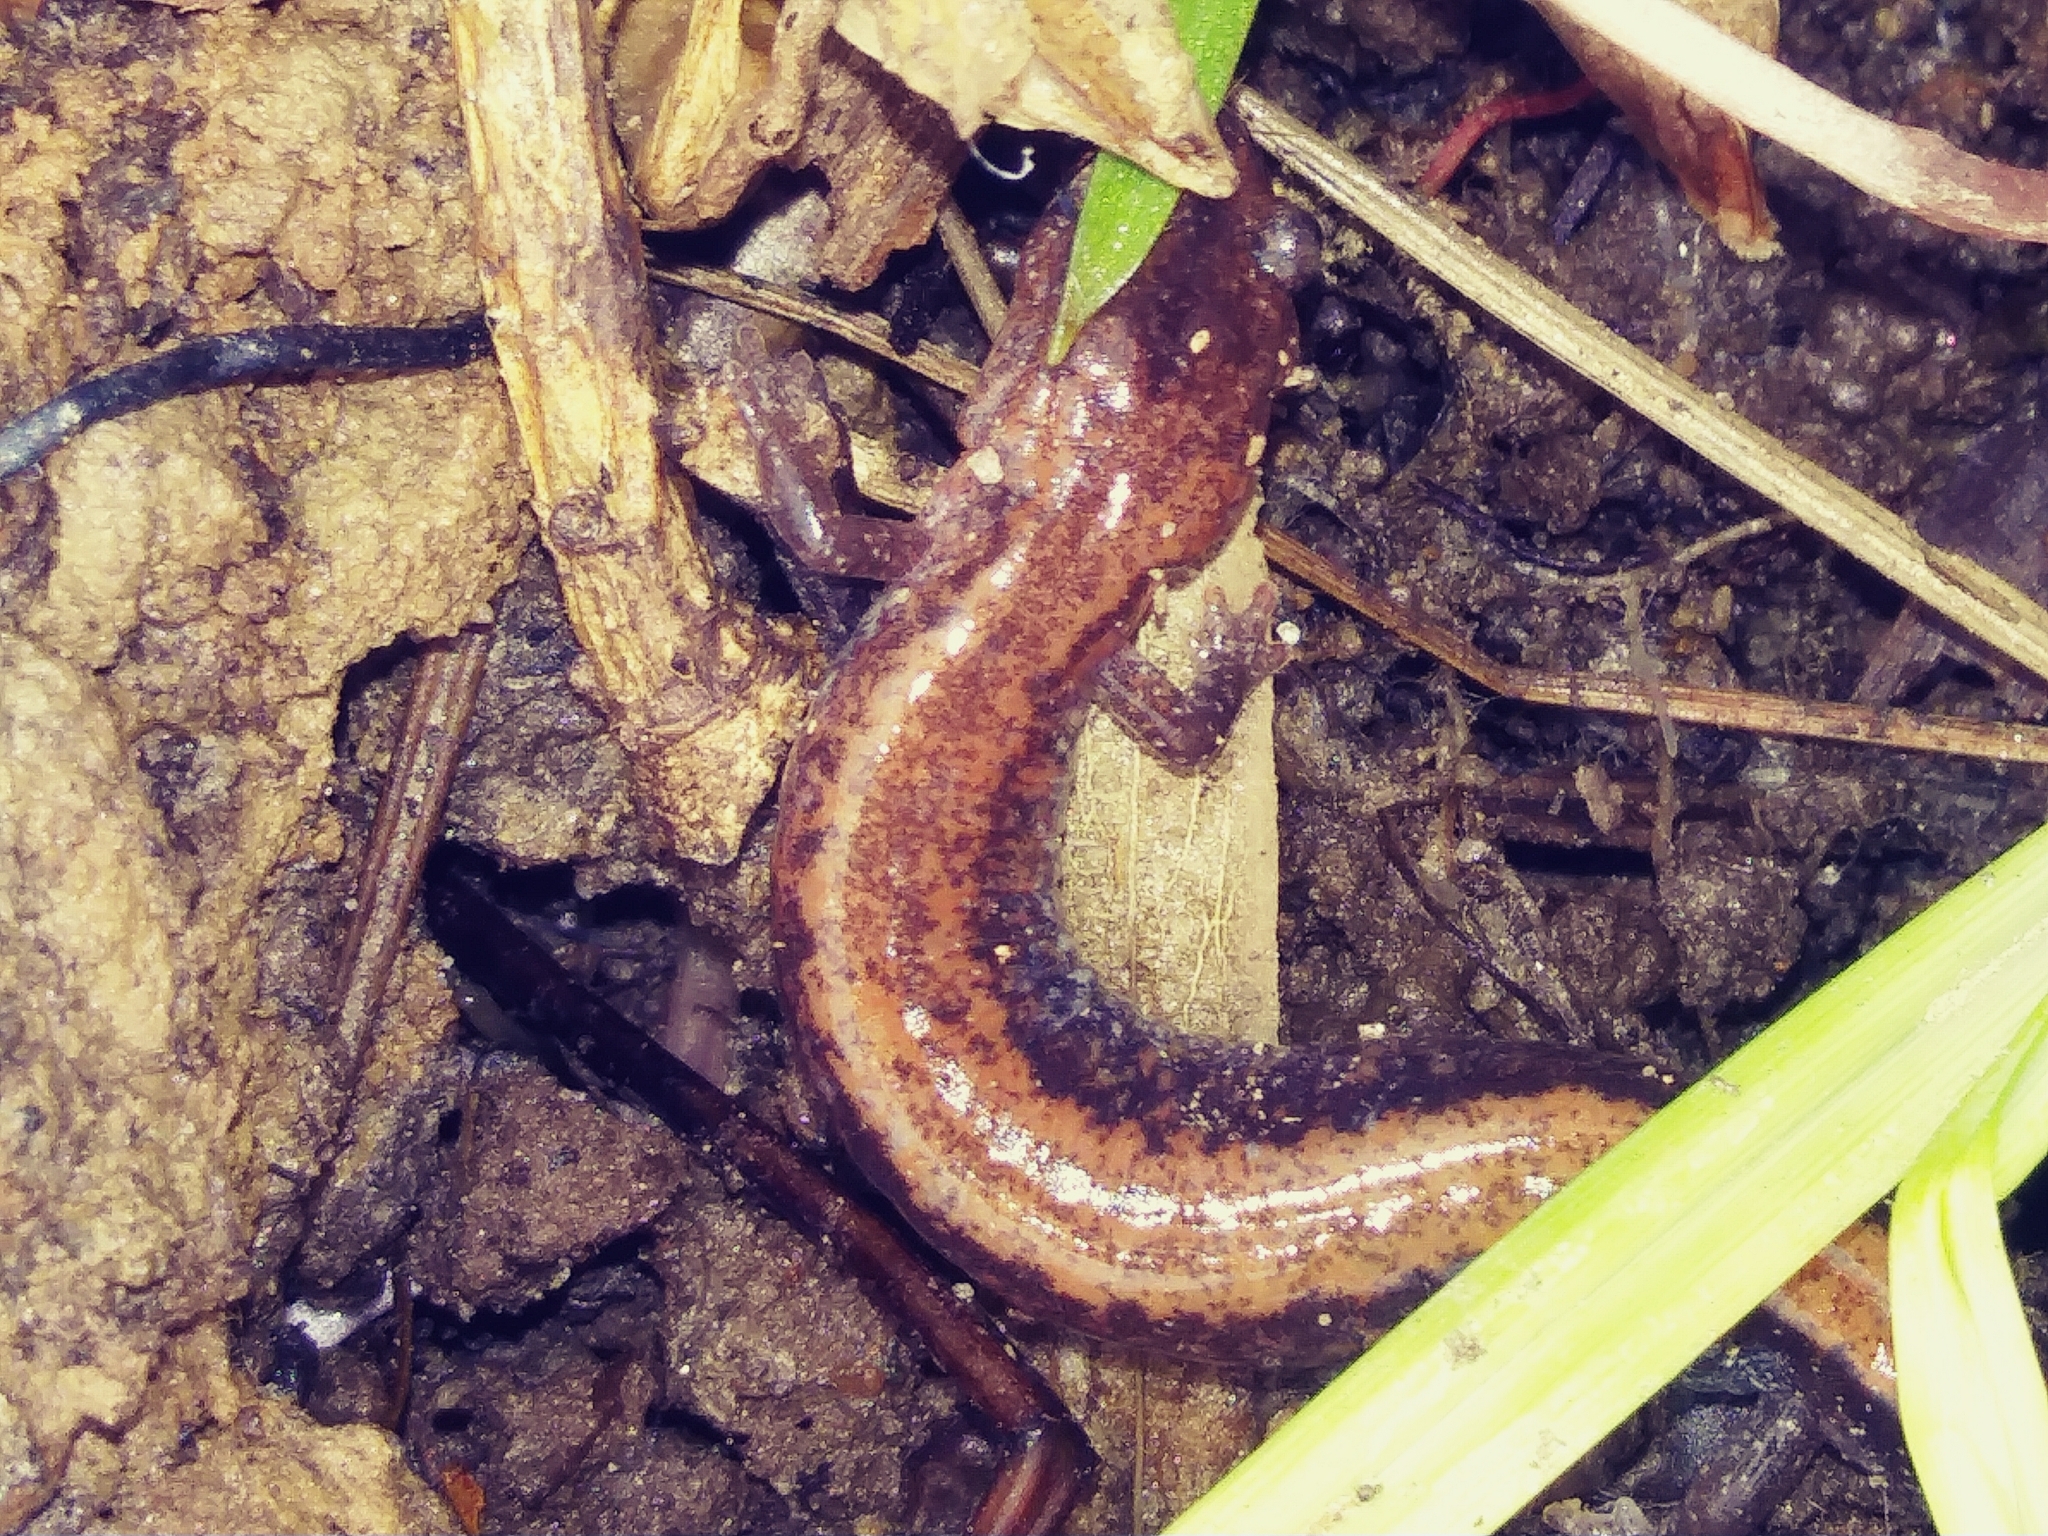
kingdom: Animalia
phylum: Chordata
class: Amphibia
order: Caudata
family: Plethodontidae
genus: Plethodon
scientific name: Plethodon cinereus
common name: Redback salamander
